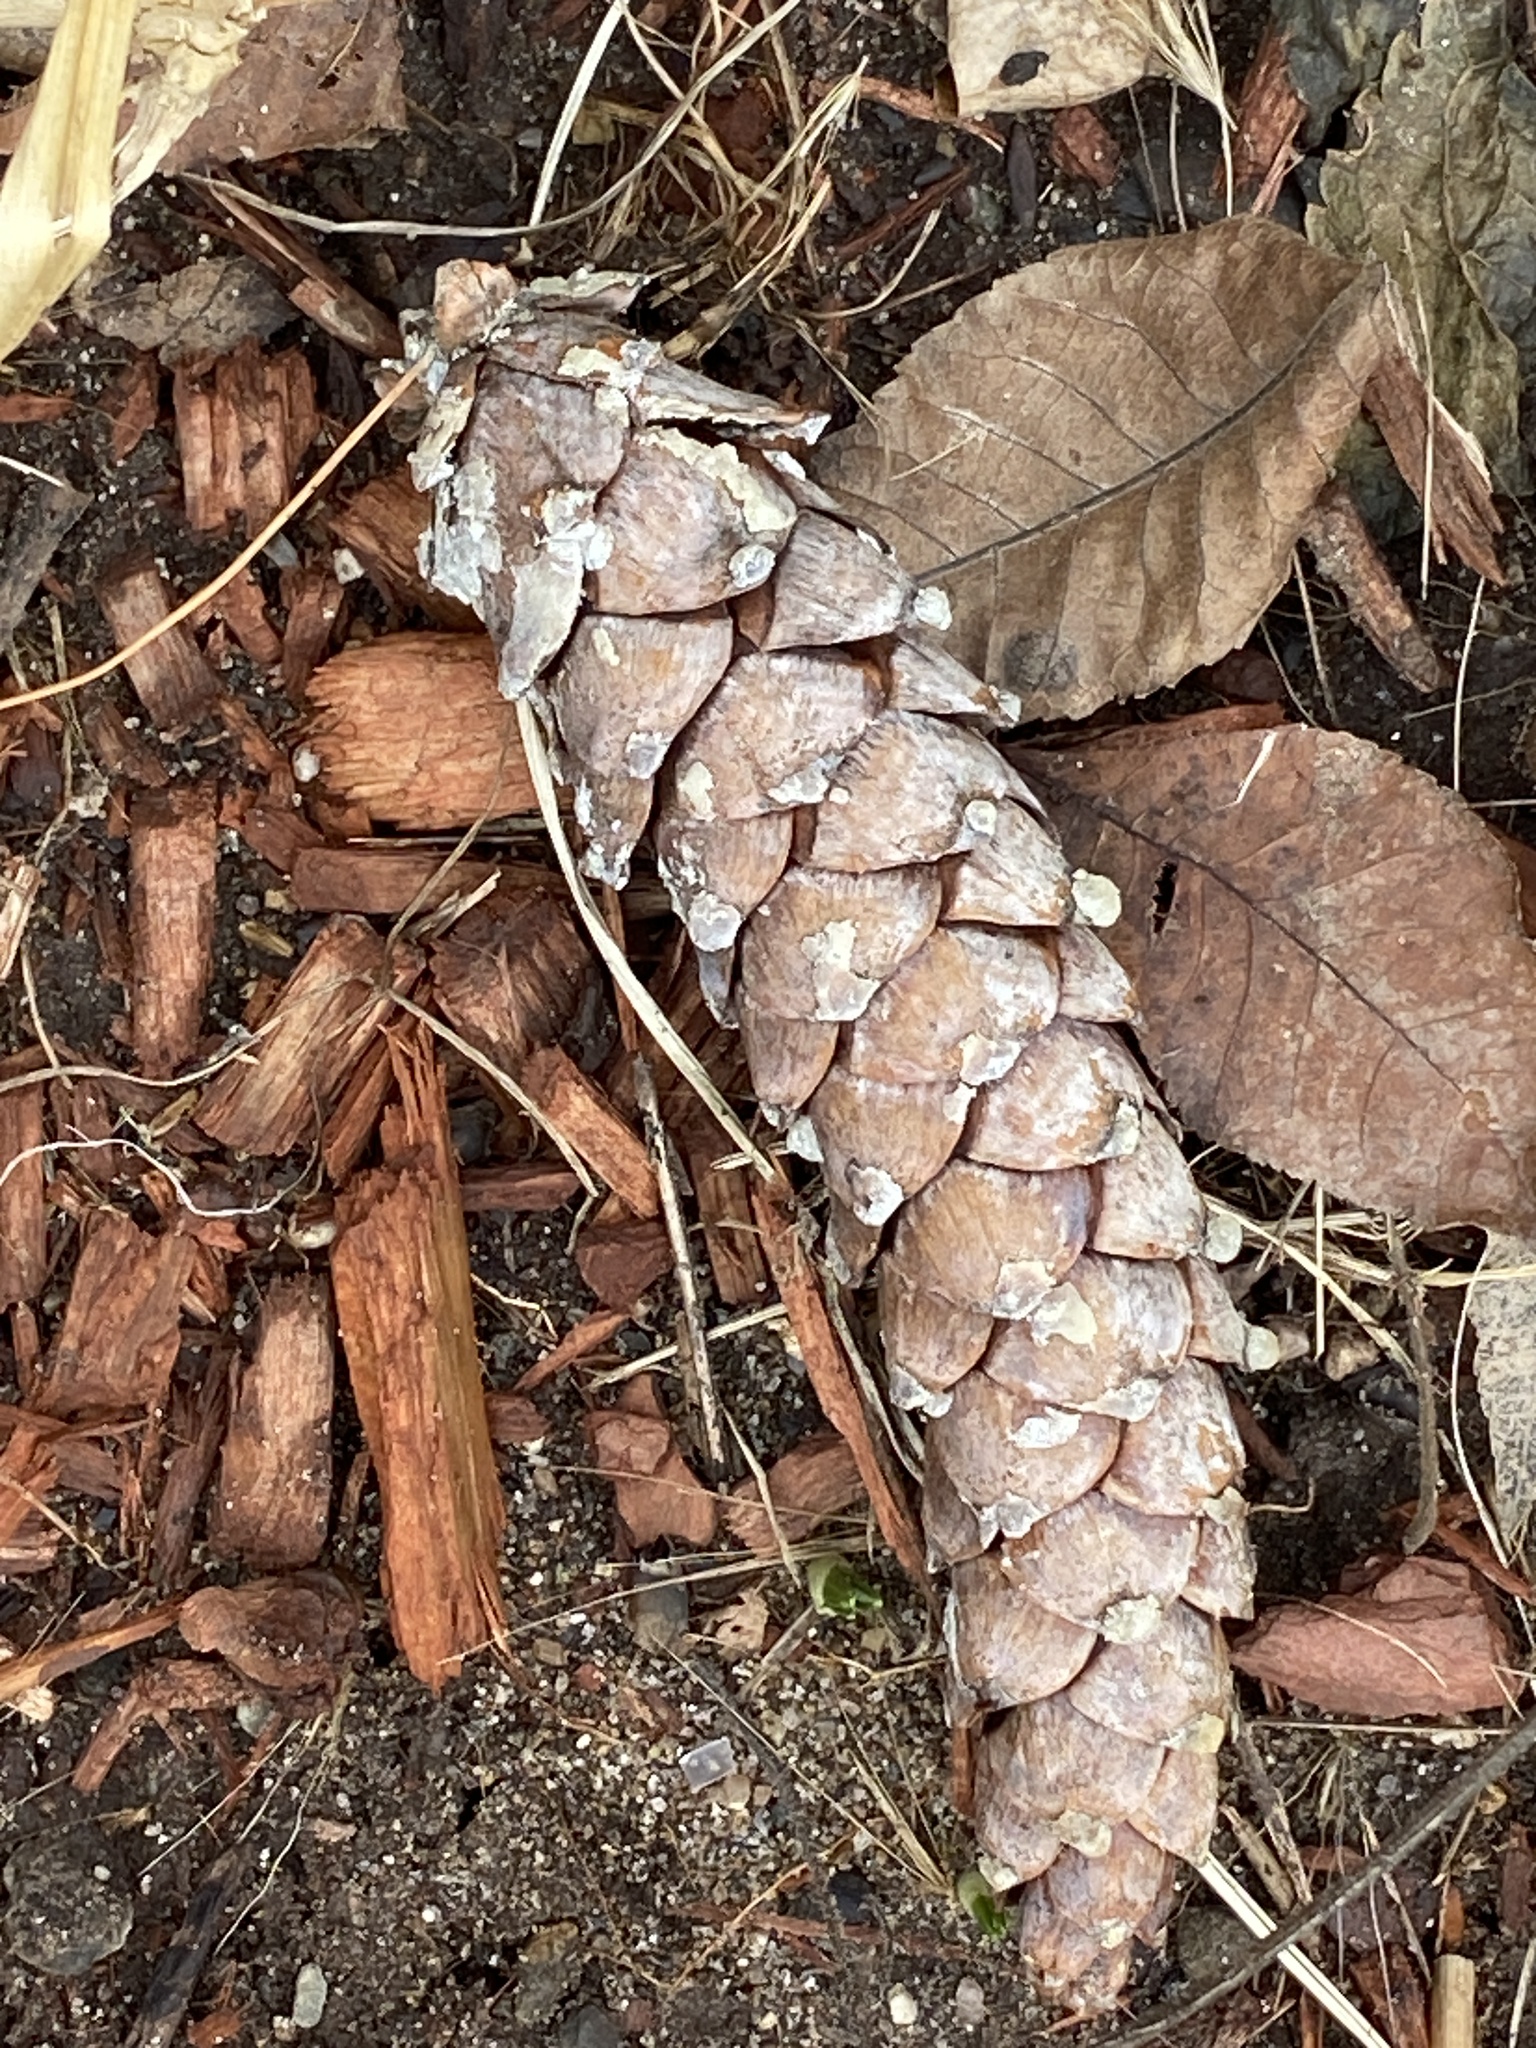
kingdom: Plantae
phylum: Tracheophyta
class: Pinopsida
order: Pinales
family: Pinaceae
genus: Pinus
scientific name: Pinus strobus
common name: Weymouth pine
